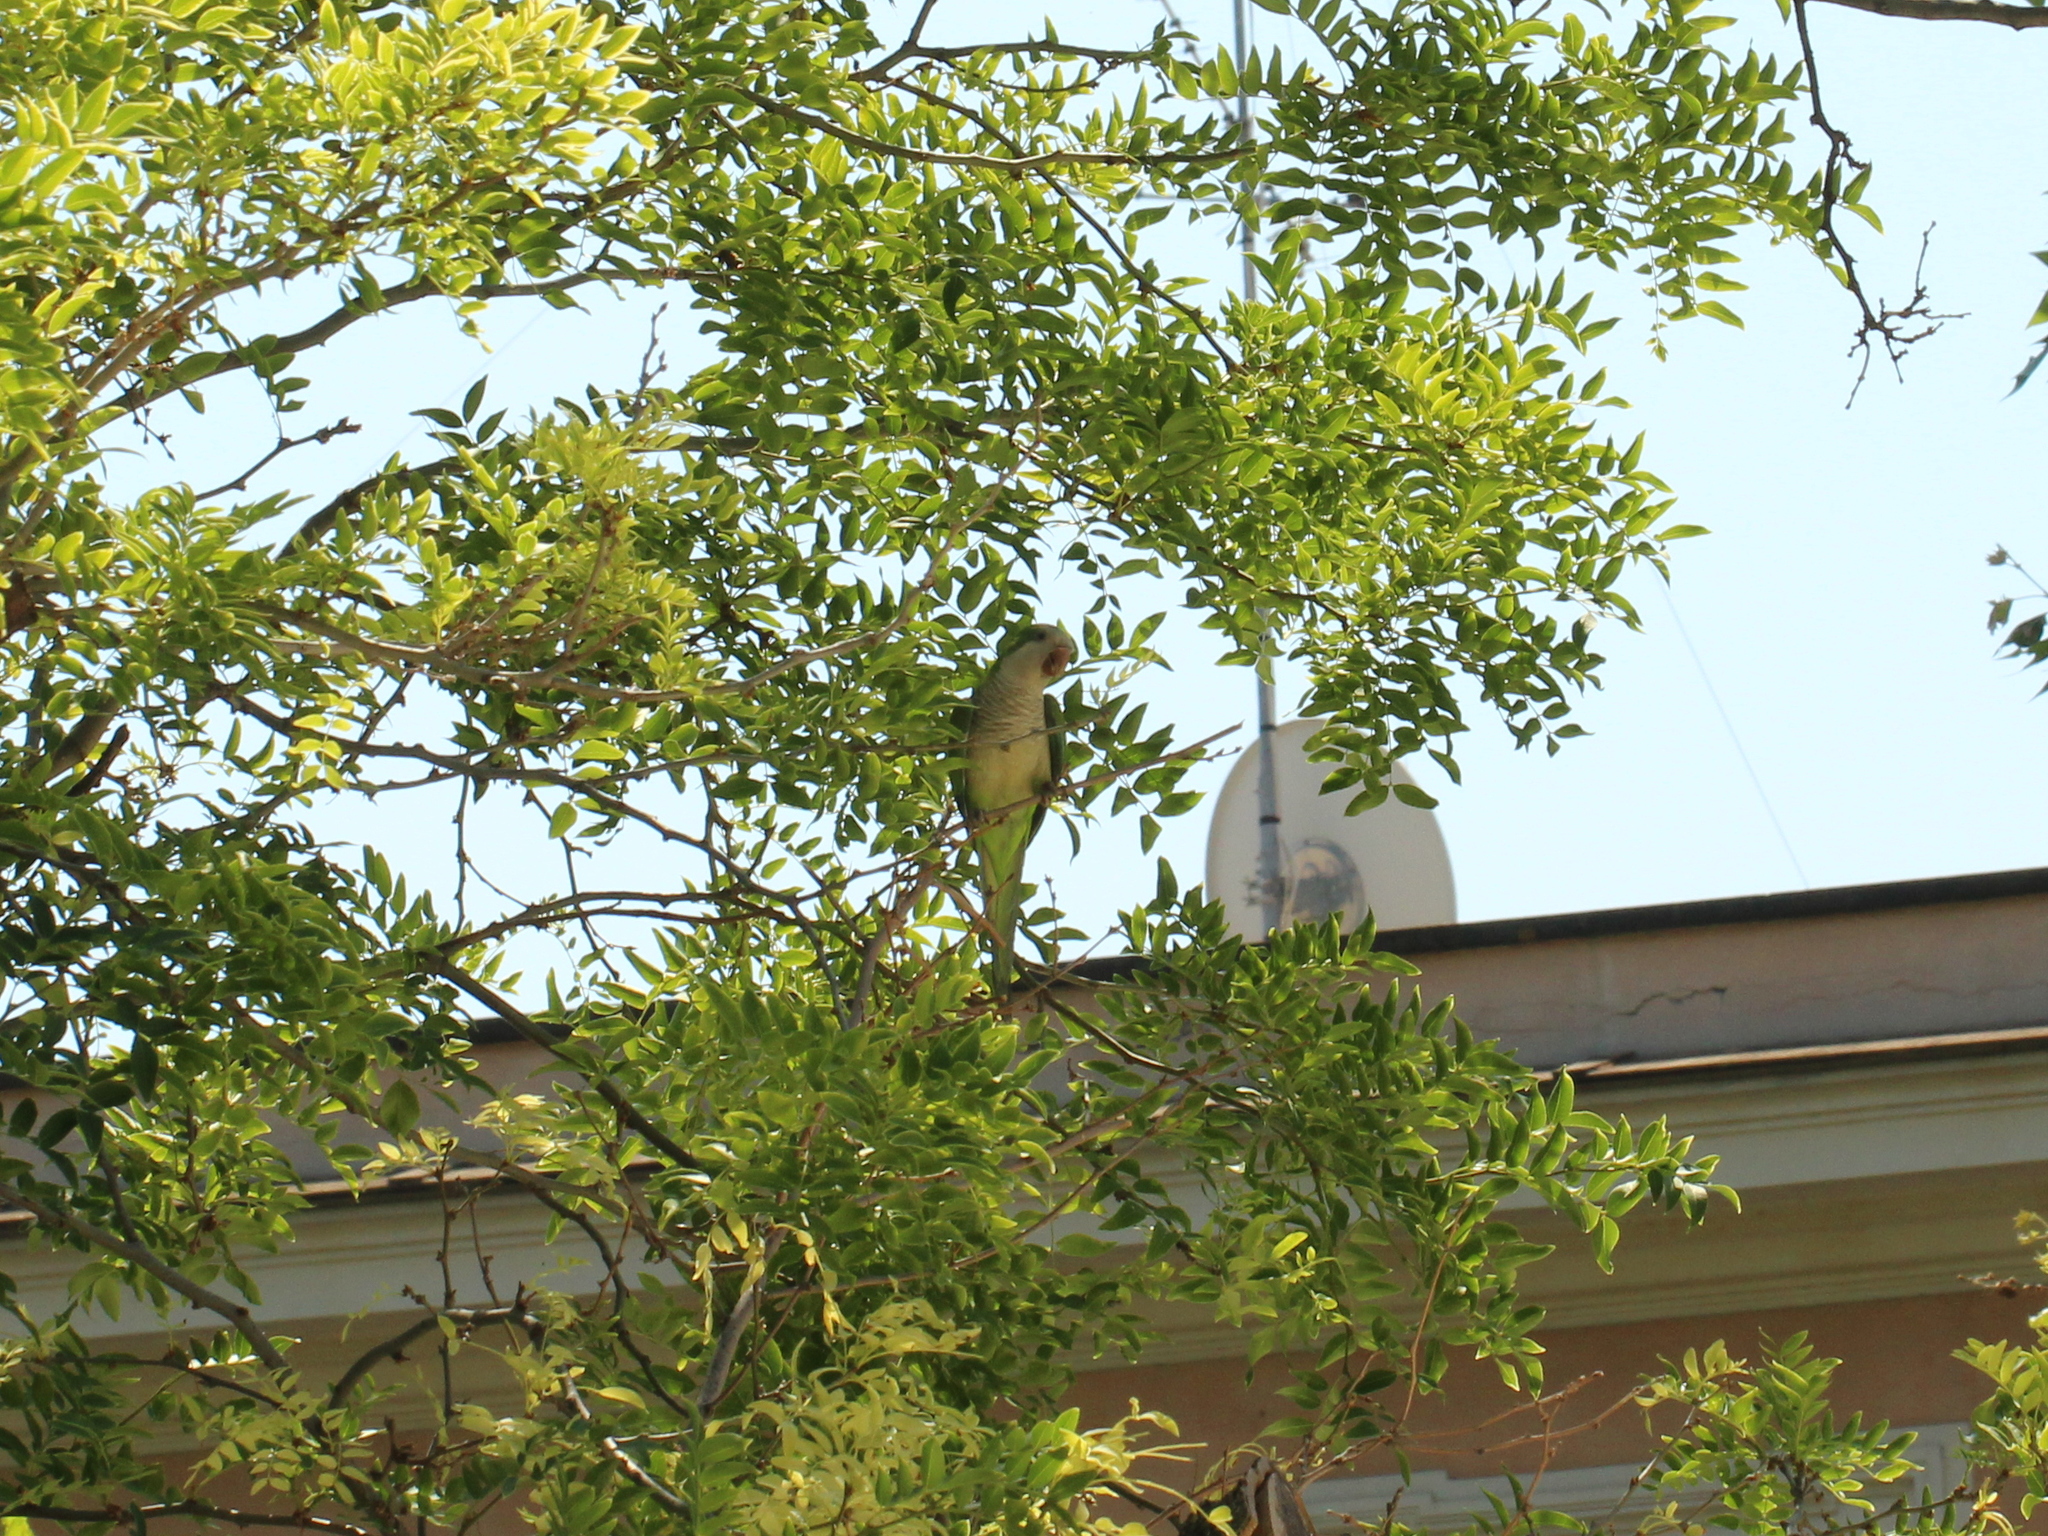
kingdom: Animalia
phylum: Chordata
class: Aves
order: Psittaciformes
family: Psittacidae
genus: Myiopsitta
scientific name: Myiopsitta monachus
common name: Monk parakeet
